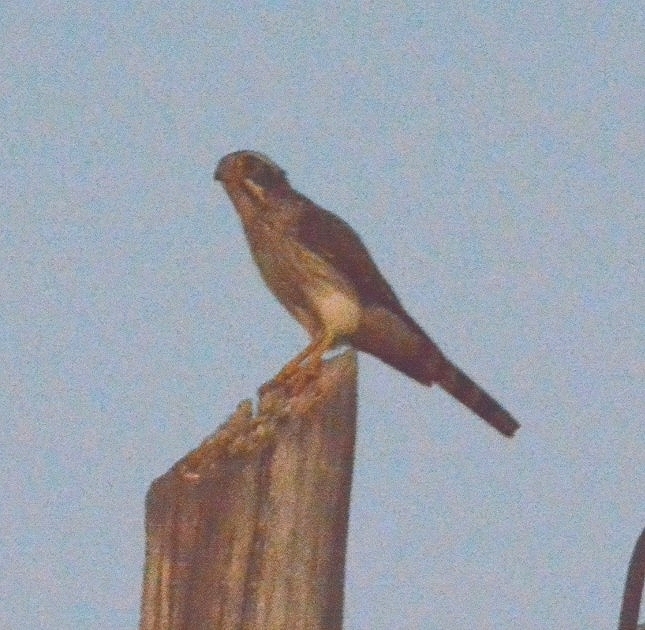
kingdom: Animalia
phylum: Chordata
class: Aves
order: Falconiformes
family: Falconidae
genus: Spiziapteryx
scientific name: Spiziapteryx circumcincta
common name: Spot-winged falconet
